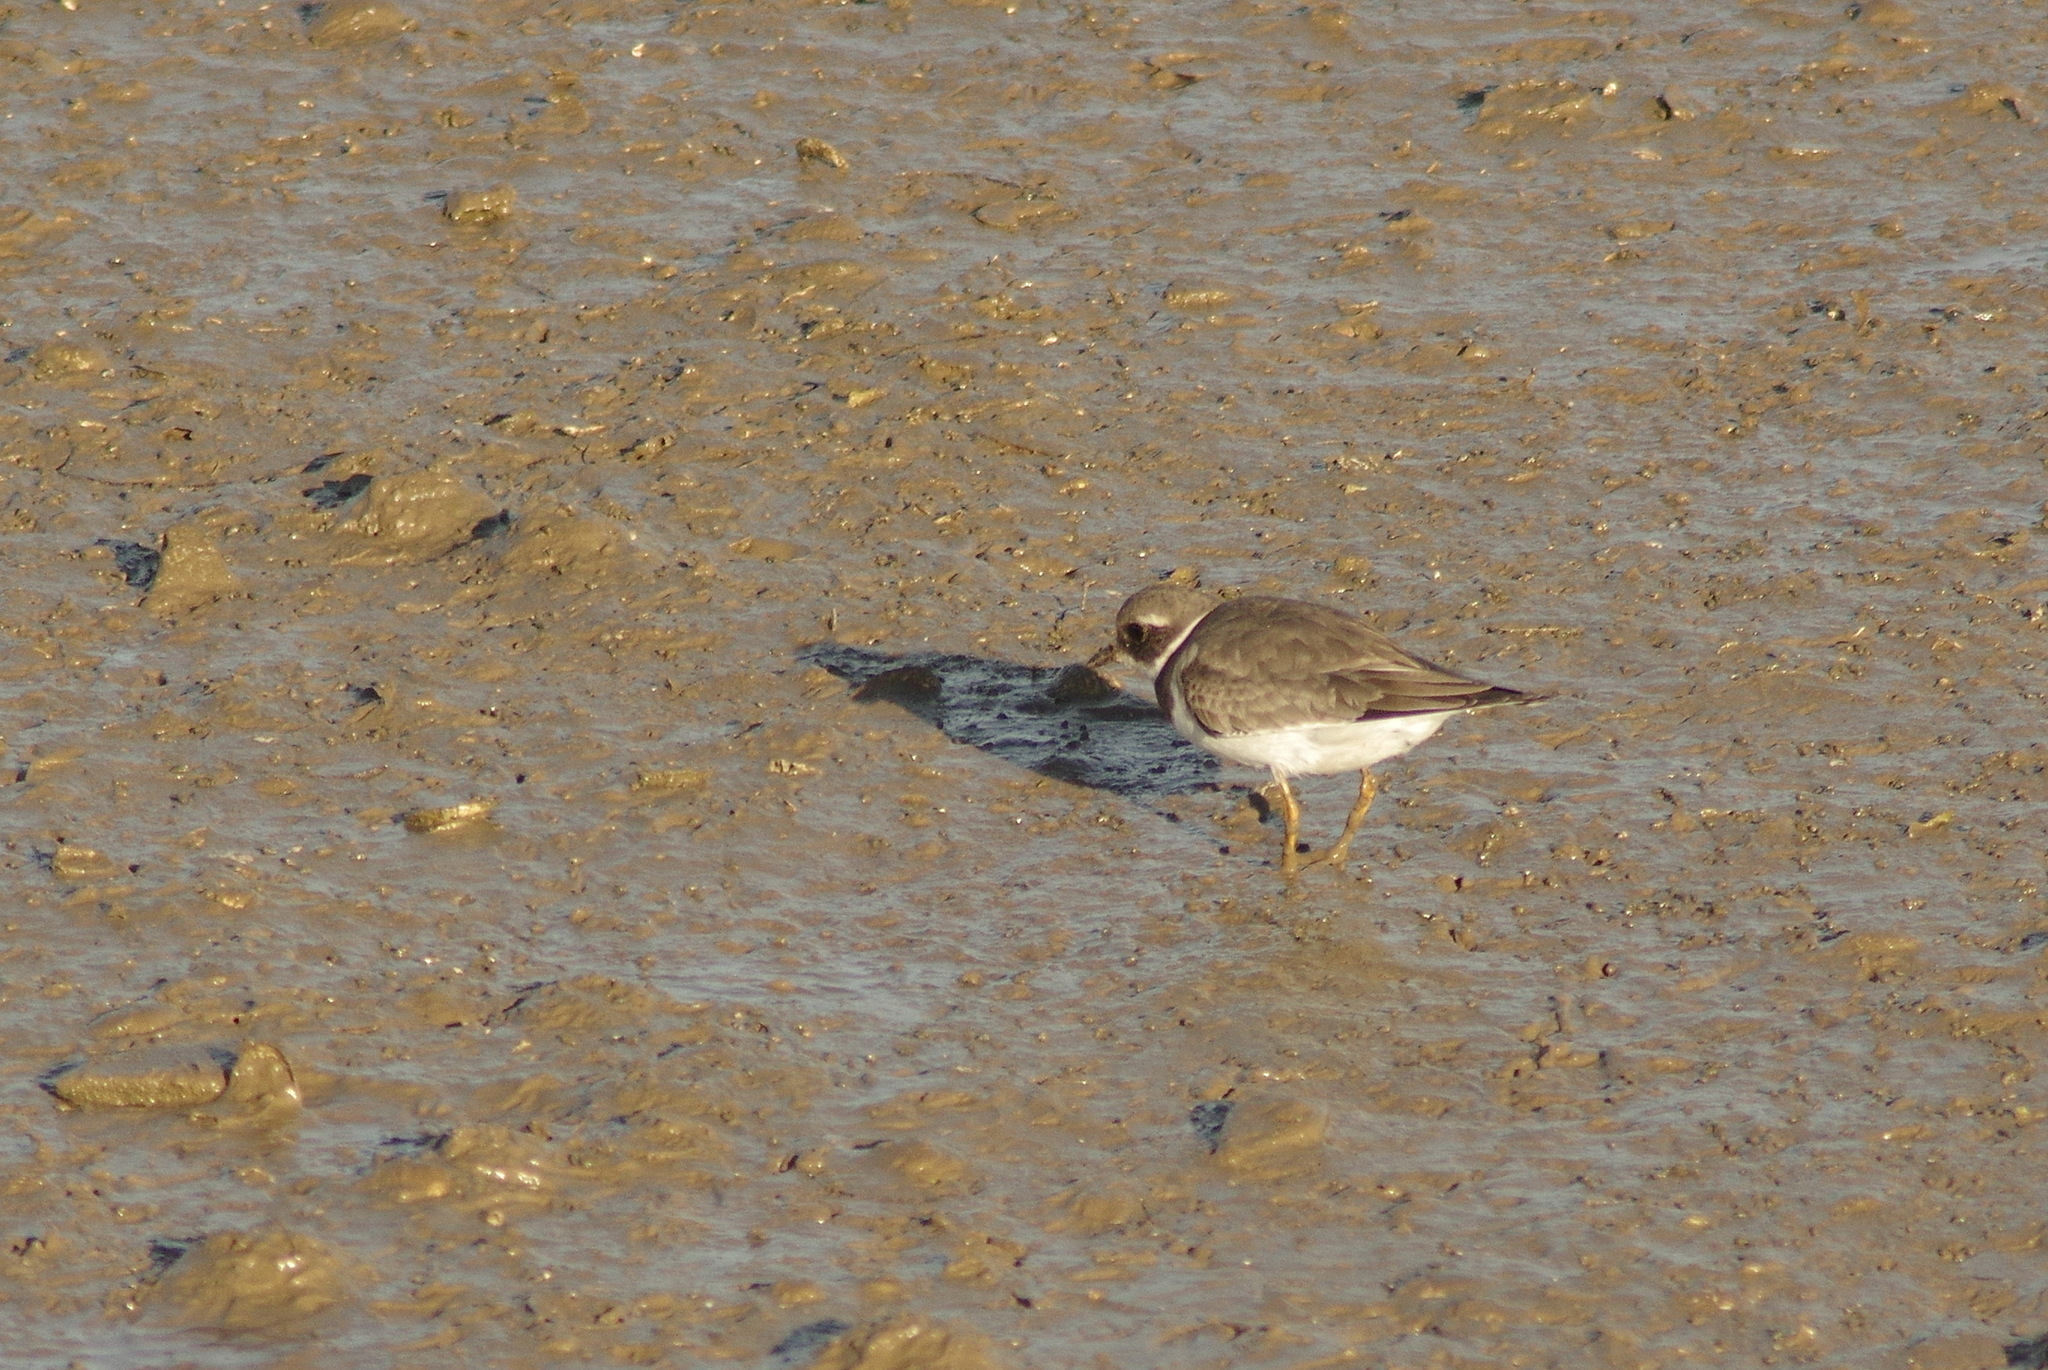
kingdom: Animalia
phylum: Chordata
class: Aves
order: Charadriiformes
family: Charadriidae
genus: Charadrius
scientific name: Charadrius hiaticula
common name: Common ringed plover
